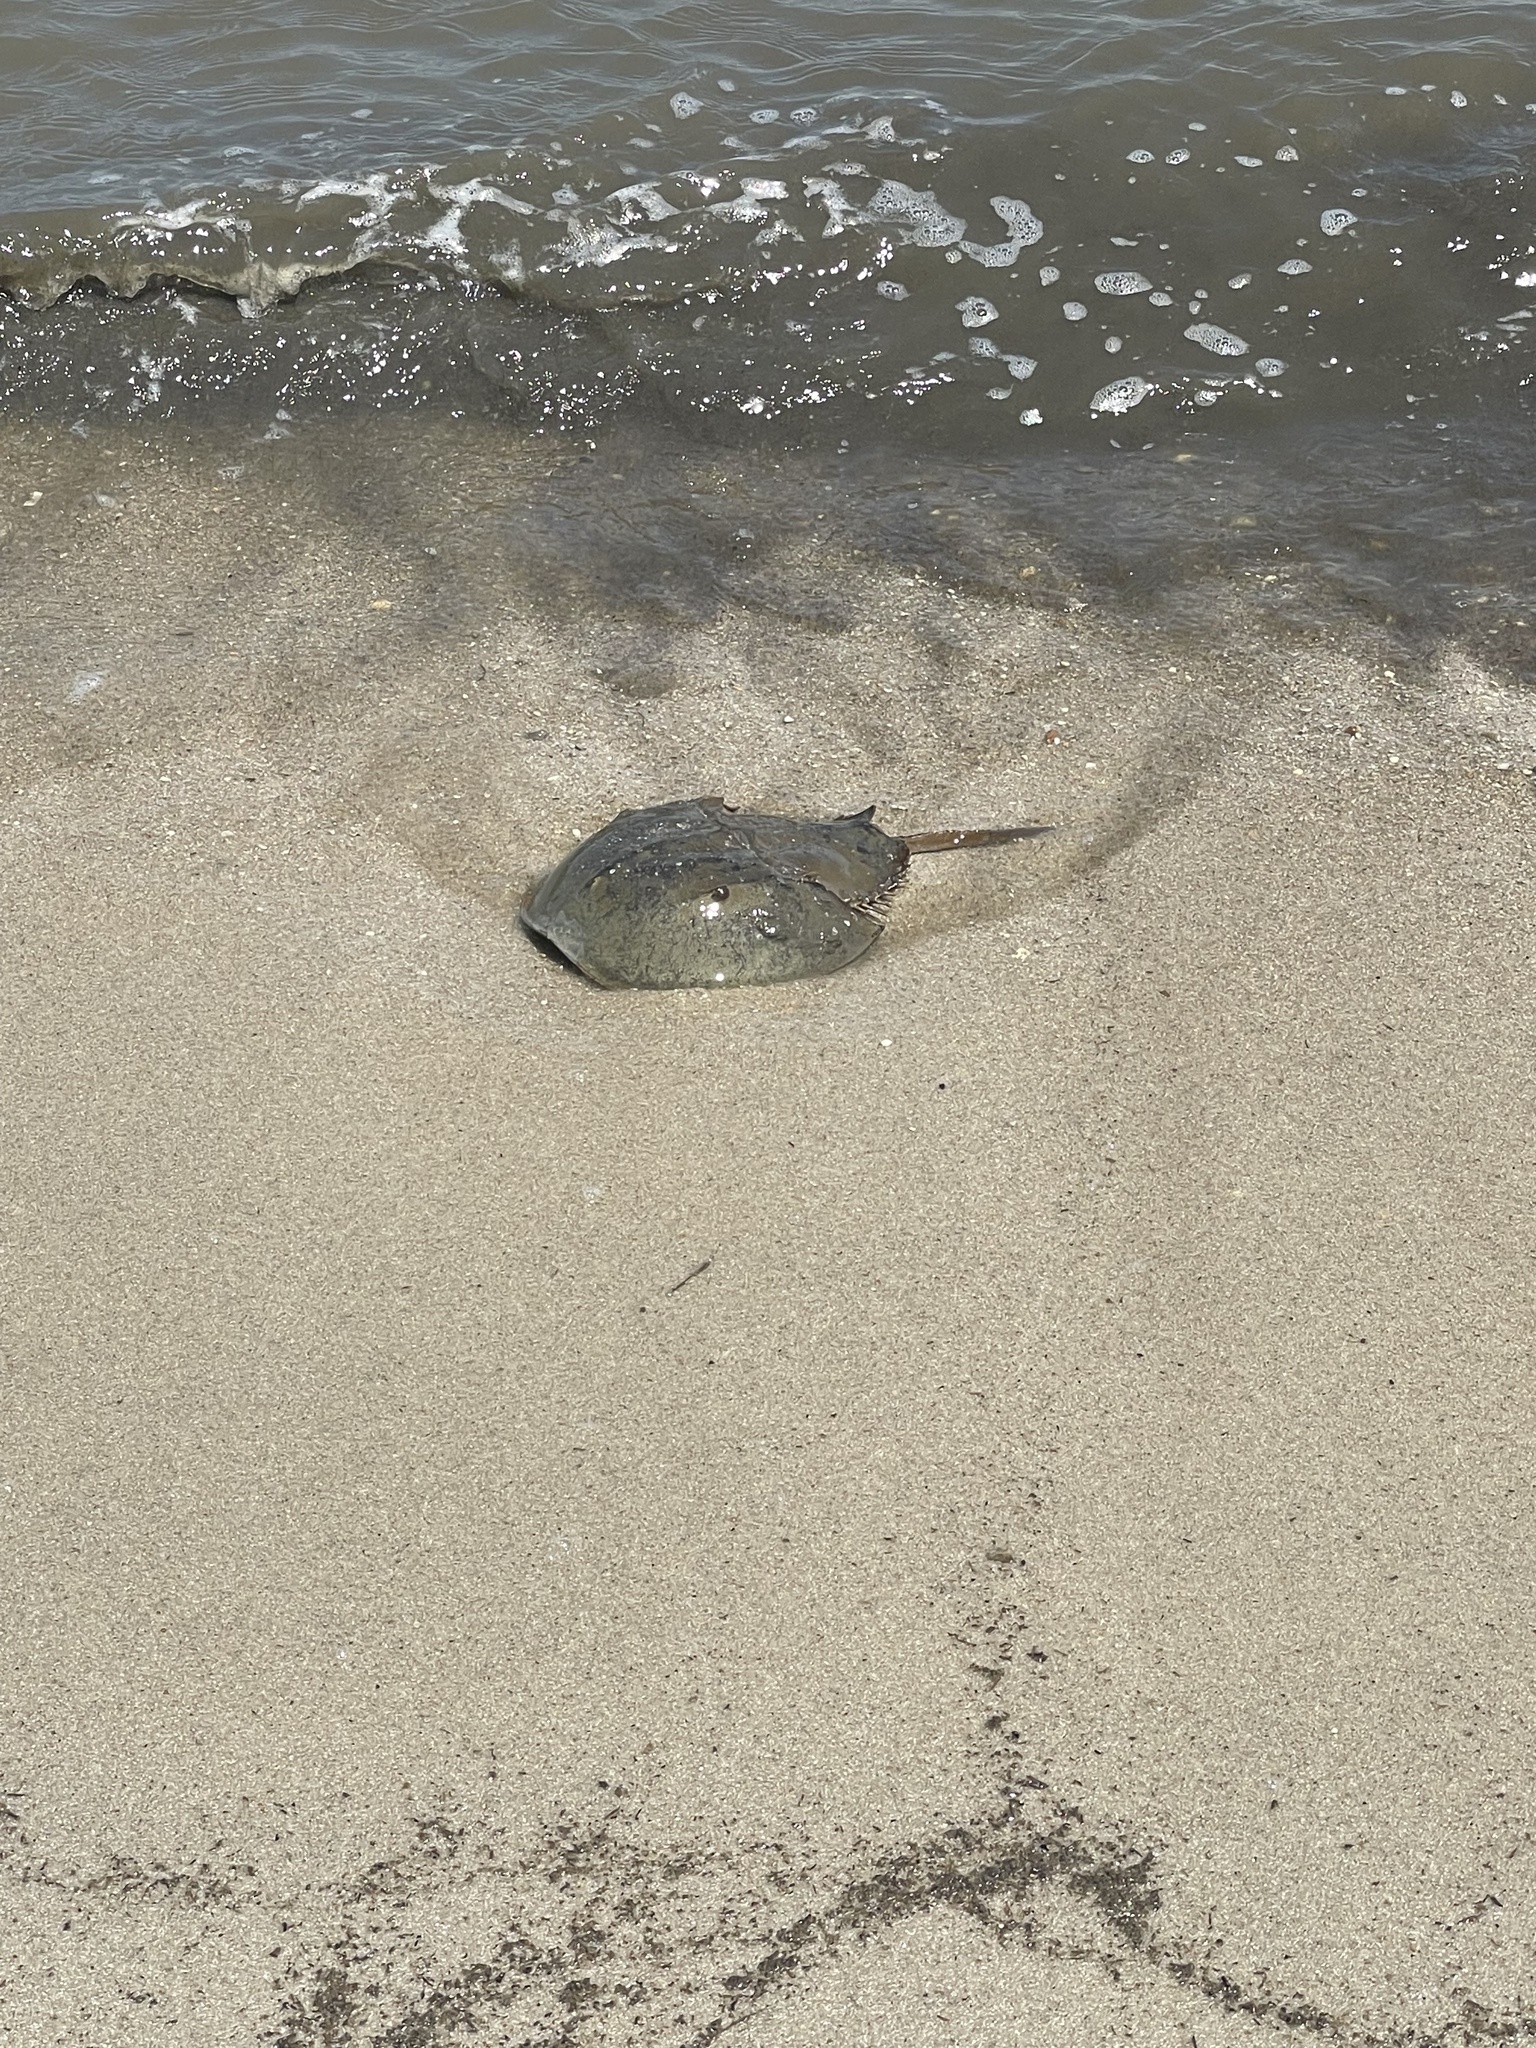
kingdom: Animalia
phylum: Arthropoda
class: Merostomata
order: Xiphosurida
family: Limulidae
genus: Limulus
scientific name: Limulus polyphemus
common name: Horseshoe crab
